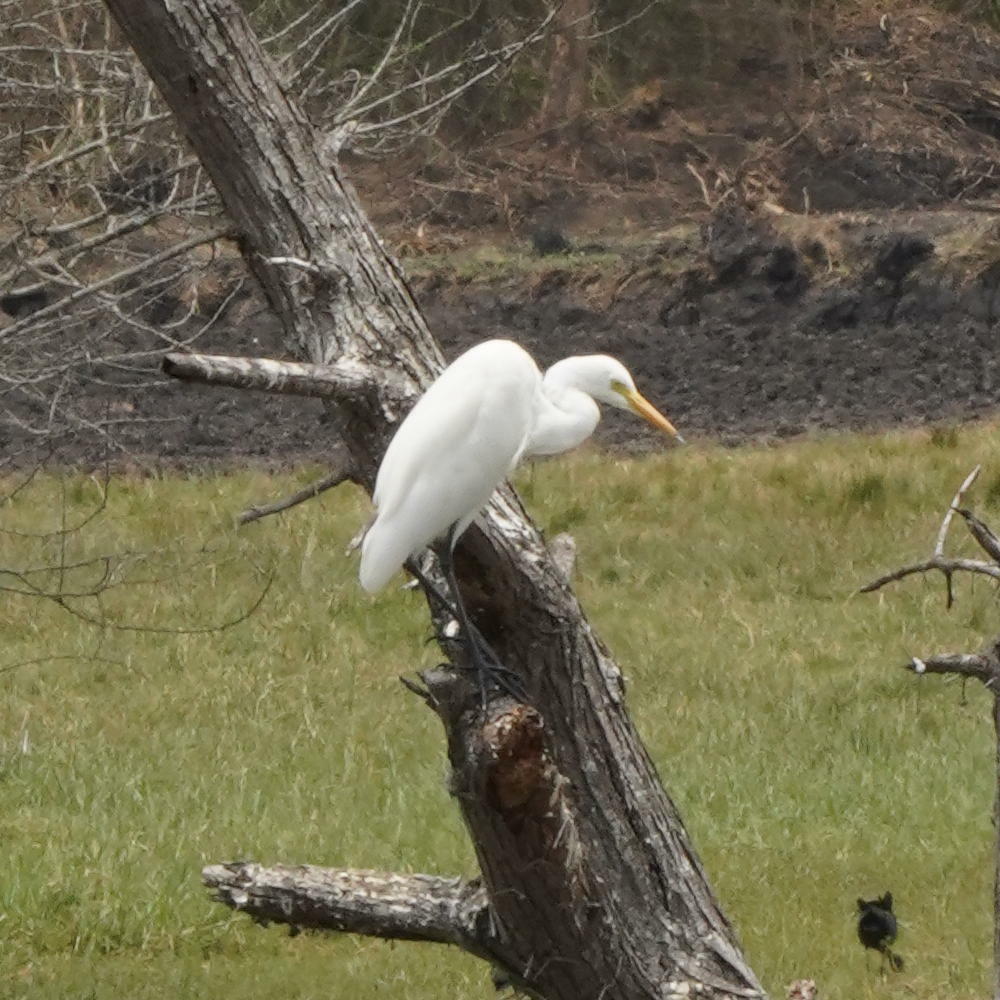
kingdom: Animalia
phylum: Chordata
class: Aves
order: Pelecaniformes
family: Ardeidae
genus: Egretta
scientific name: Egretta intermedia
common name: Intermediate egret
